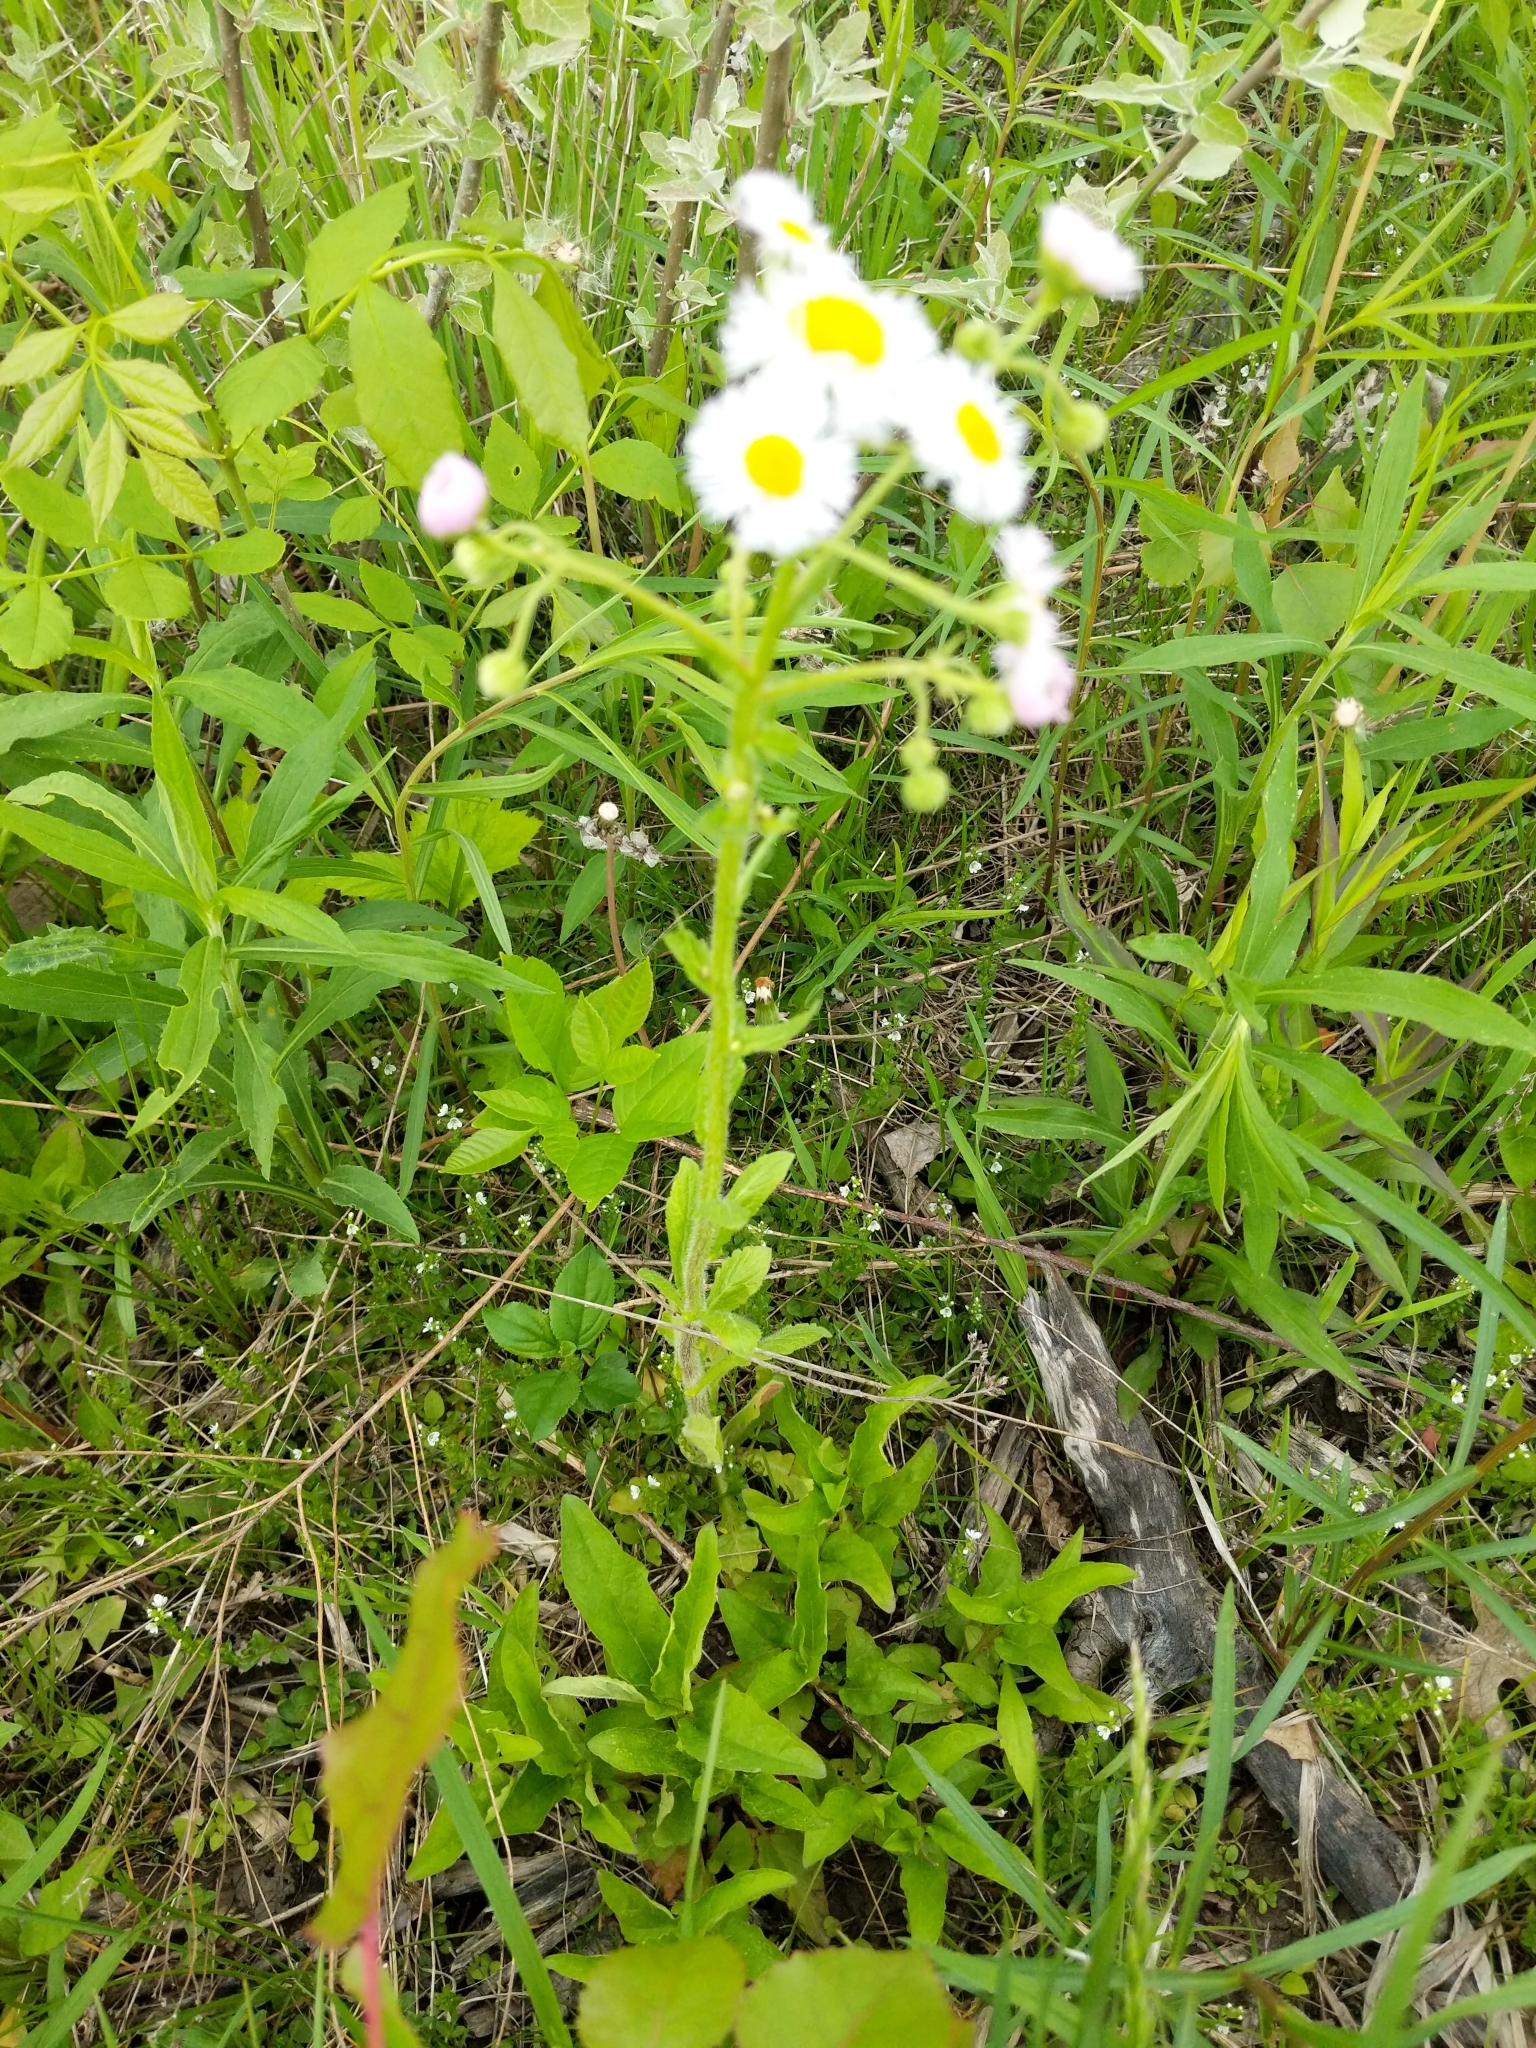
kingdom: Plantae
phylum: Tracheophyta
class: Magnoliopsida
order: Asterales
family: Asteraceae
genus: Erigeron
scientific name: Erigeron philadelphicus
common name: Robin's-plantain
